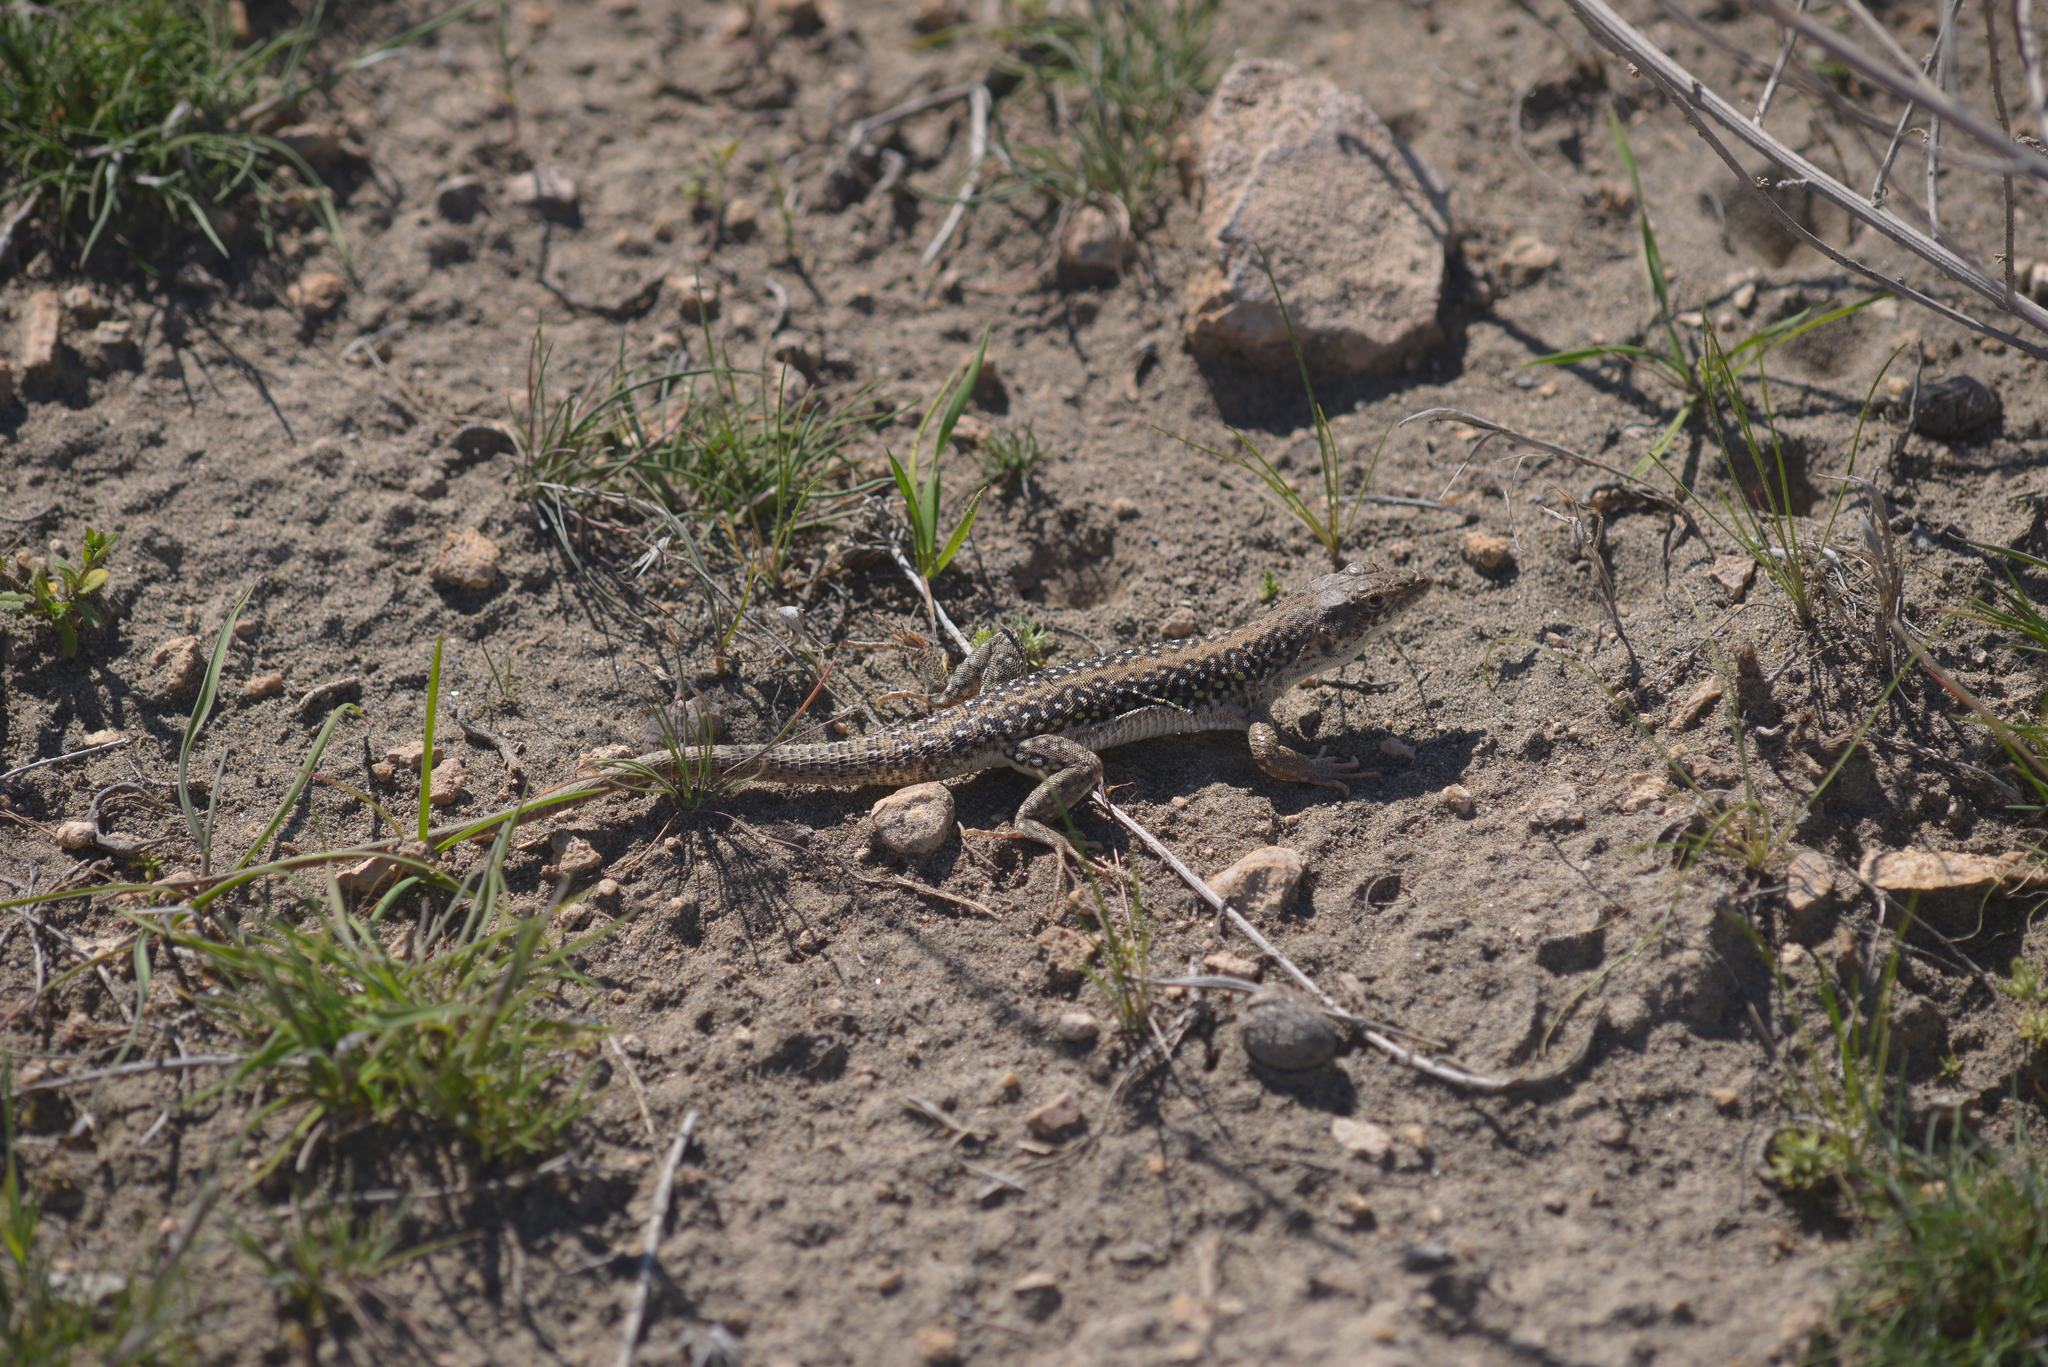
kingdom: Animalia
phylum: Chordata
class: Squamata
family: Lacertidae
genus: Eremias
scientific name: Eremias strauchi
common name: Strauch's racerunner
